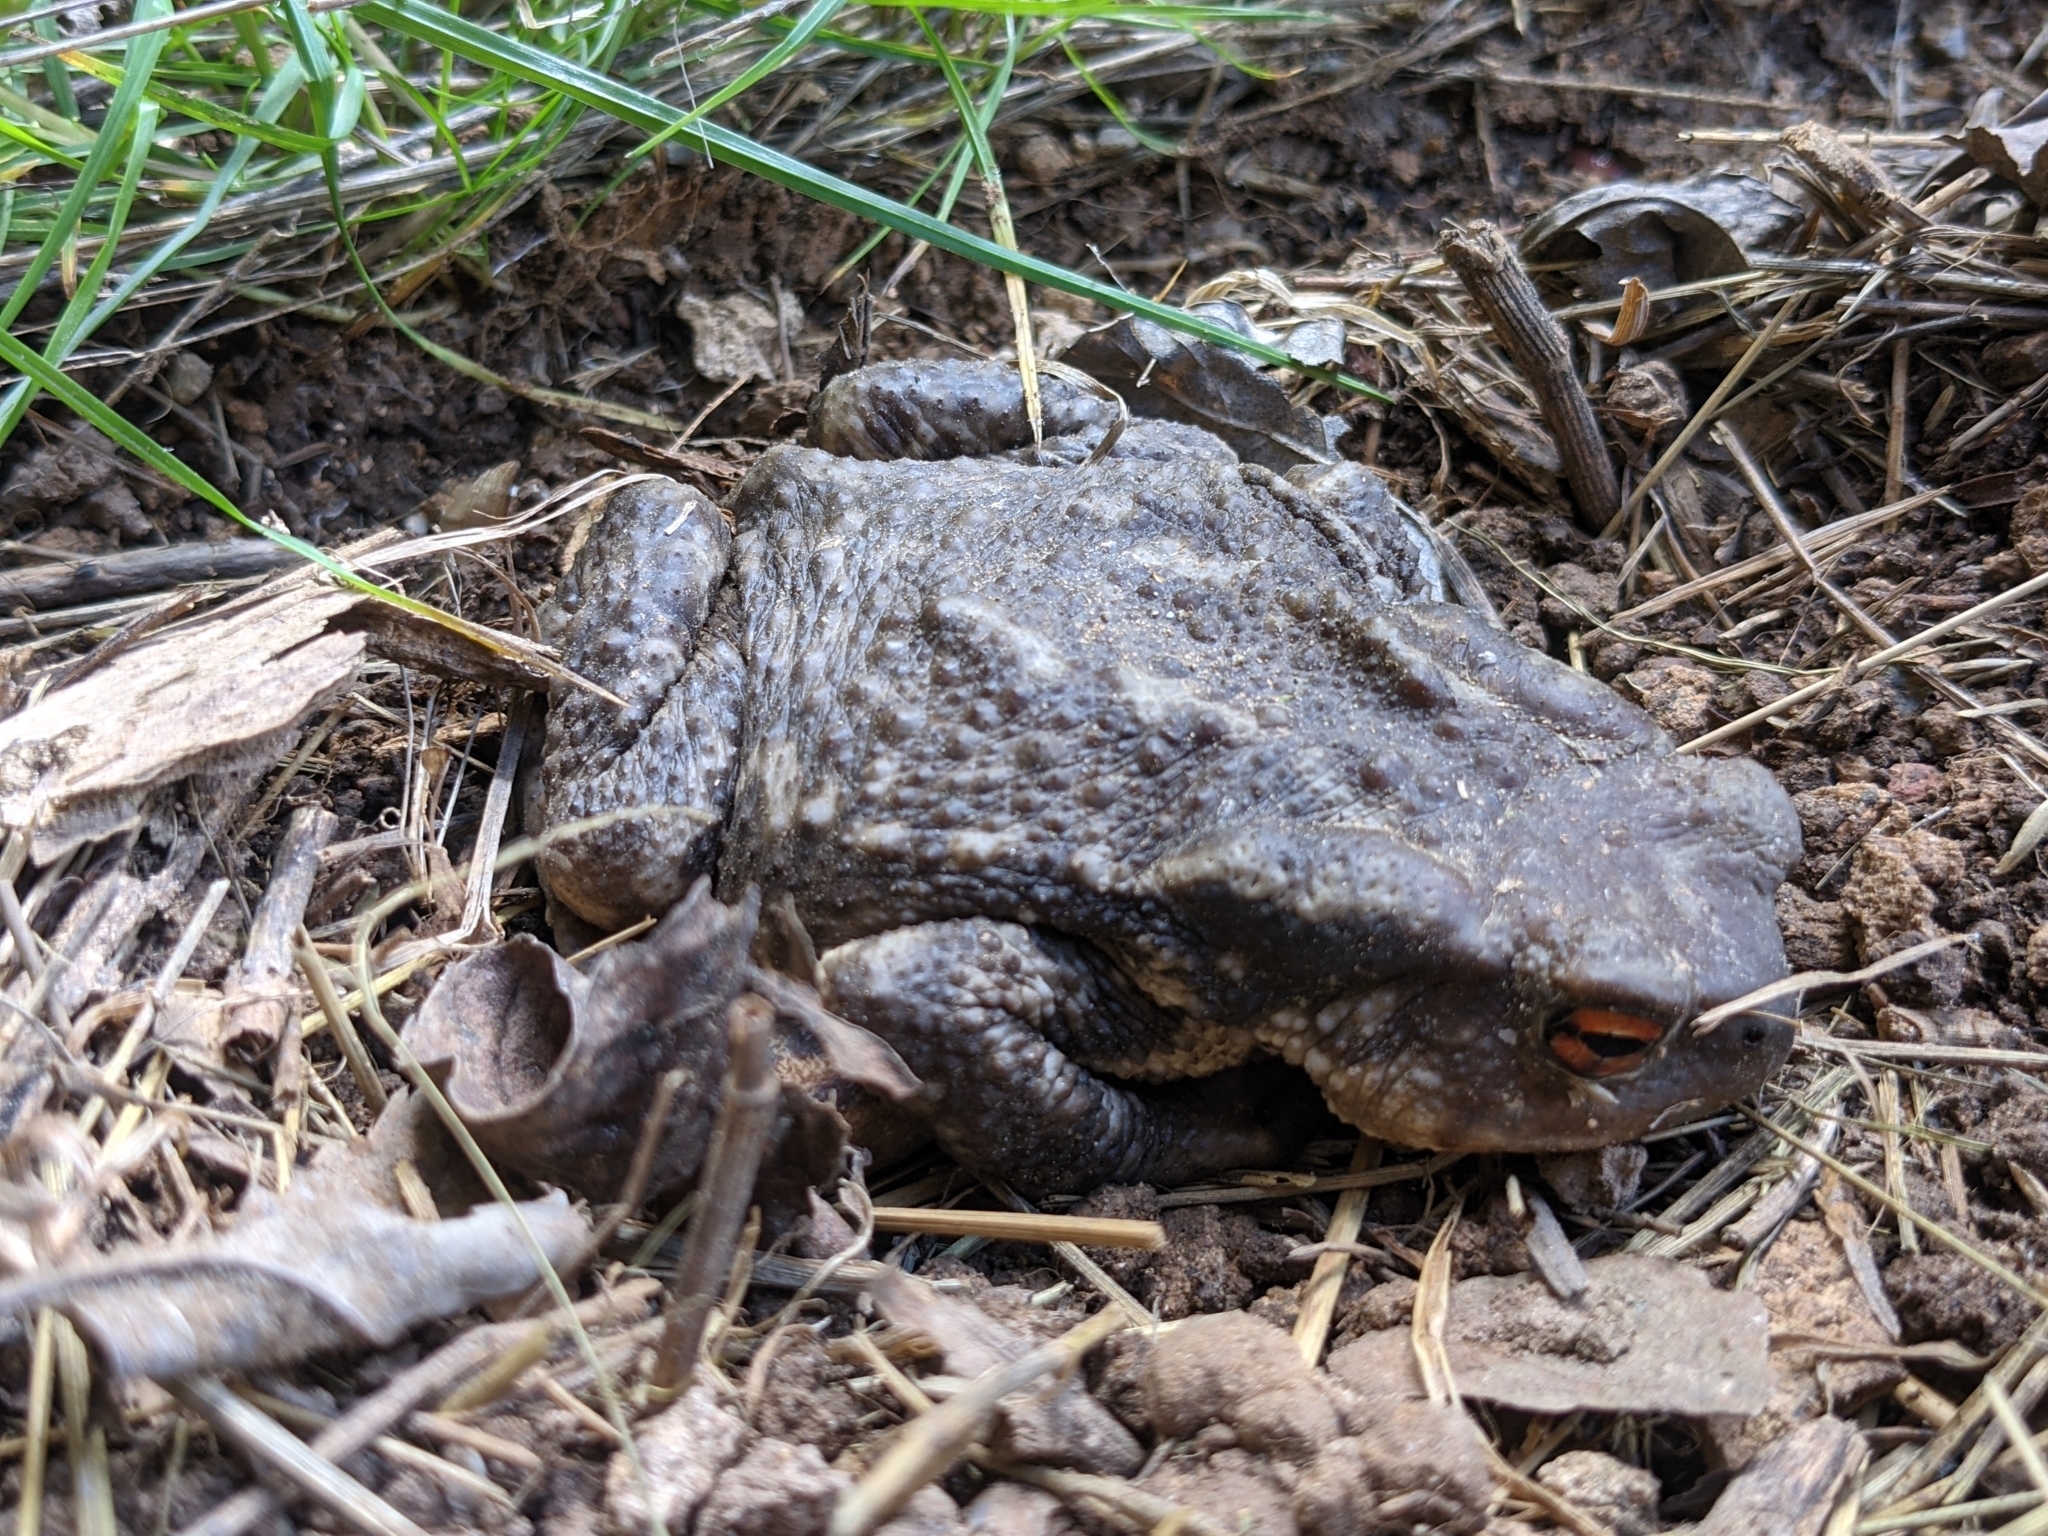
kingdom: Animalia
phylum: Chordata
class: Amphibia
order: Anura
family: Bufonidae
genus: Bufo
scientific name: Bufo spinosus
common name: Western common toad
